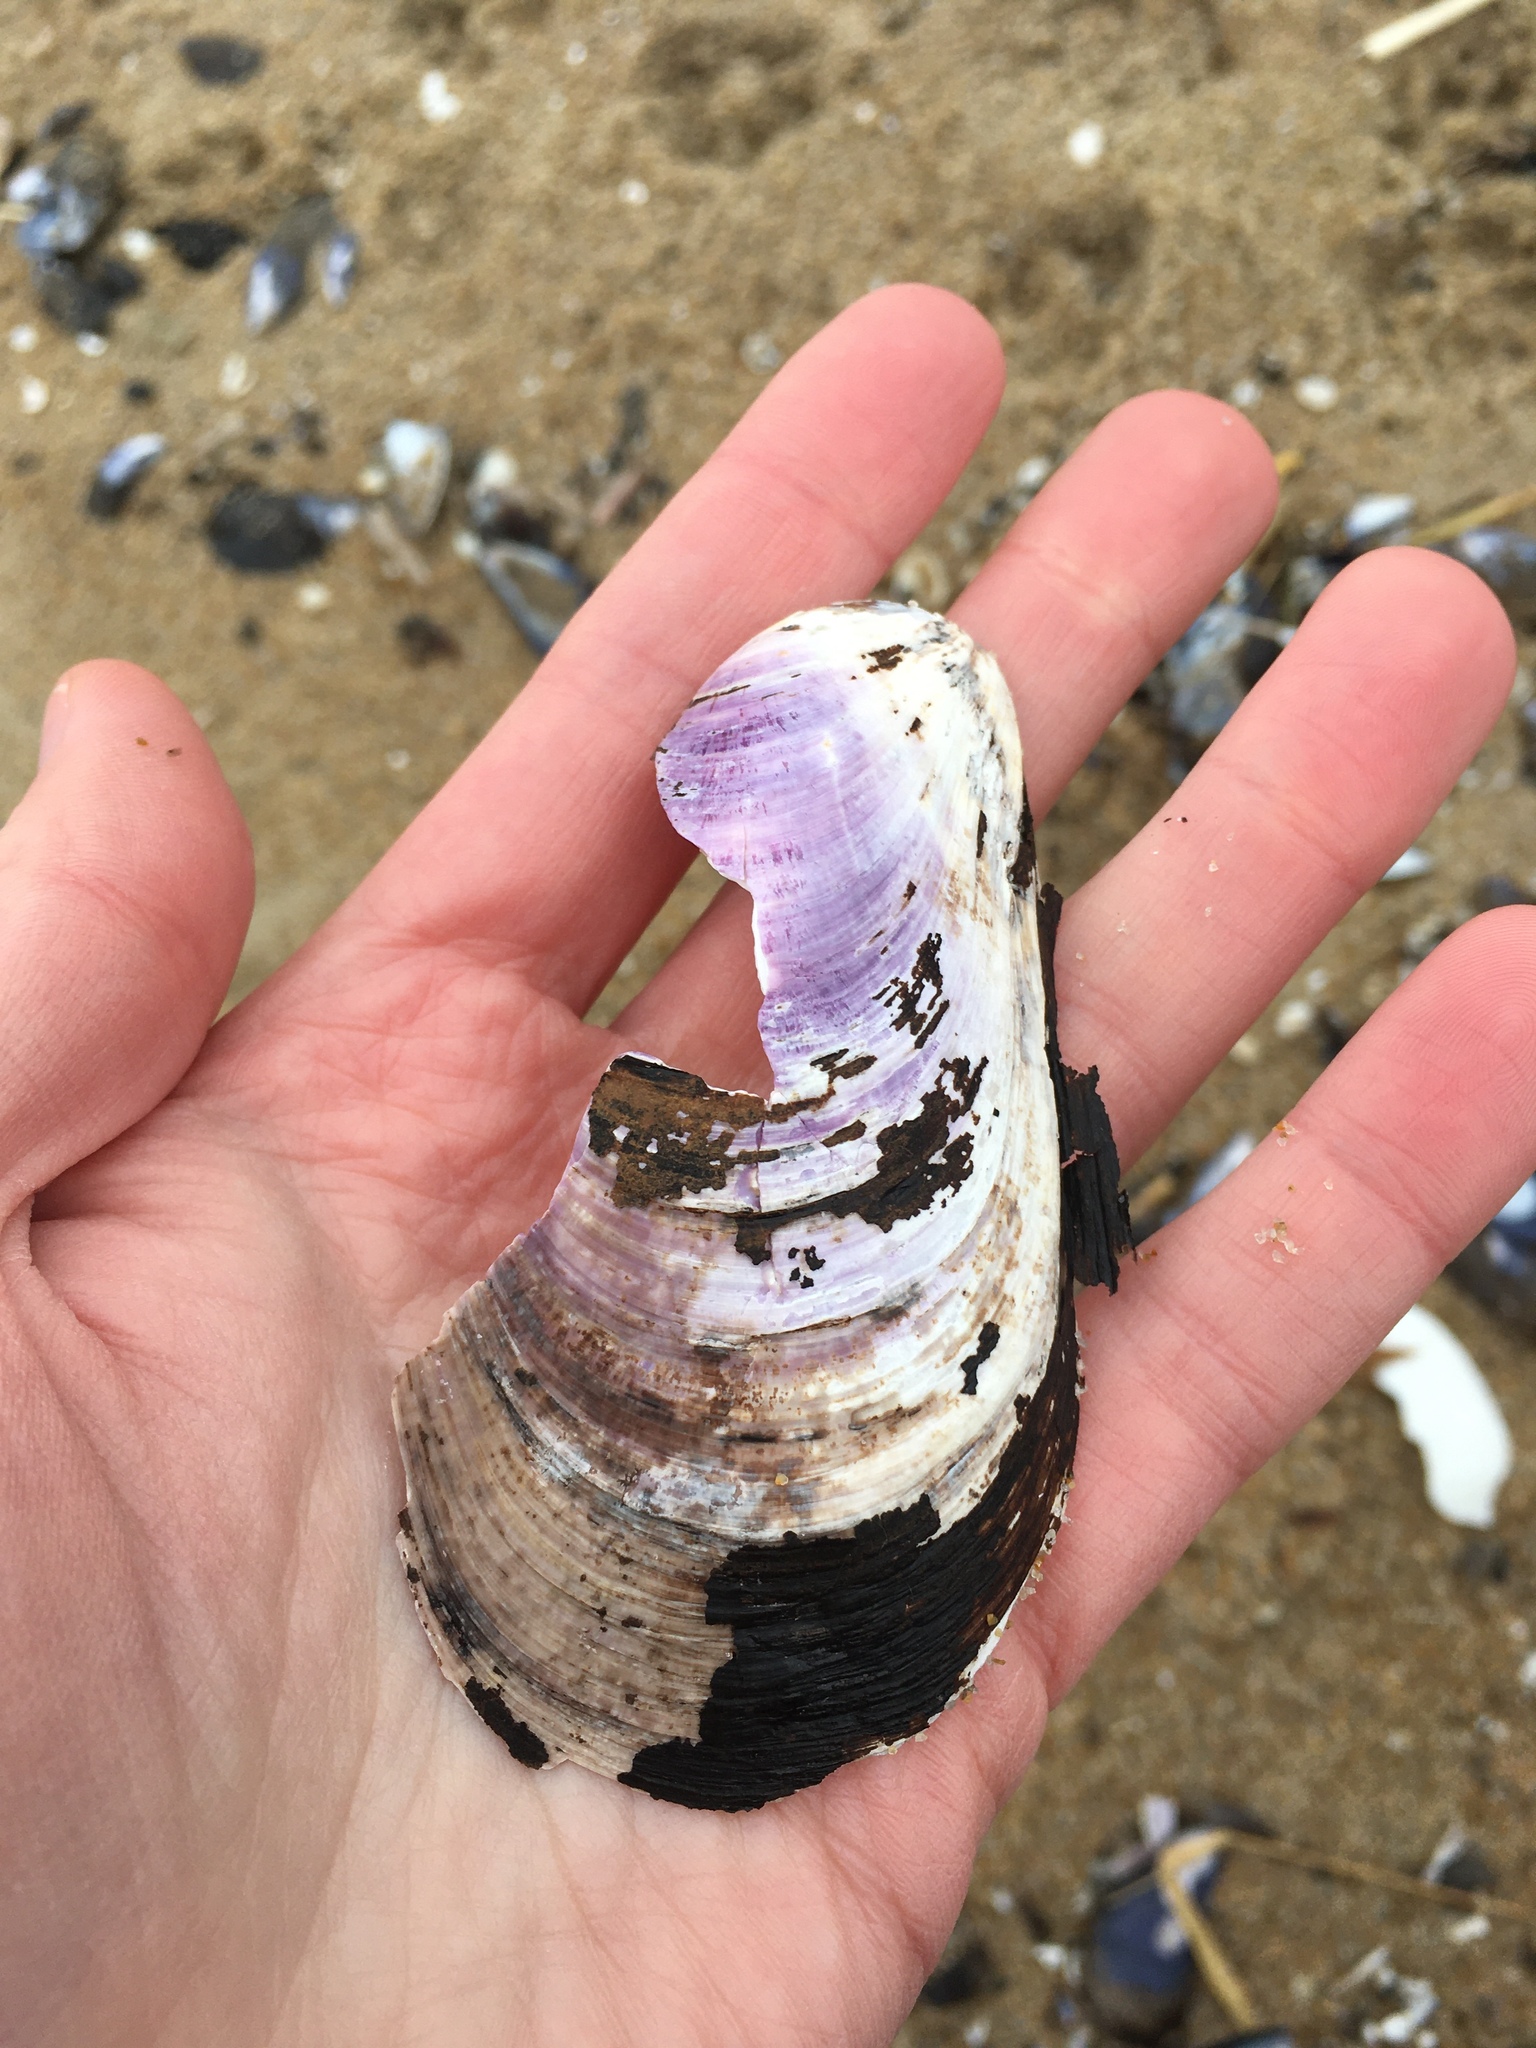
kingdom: Animalia
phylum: Mollusca
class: Bivalvia
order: Mytilida
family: Mytilidae
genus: Modiolus
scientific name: Modiolus modiolus
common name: Horse-mussel
